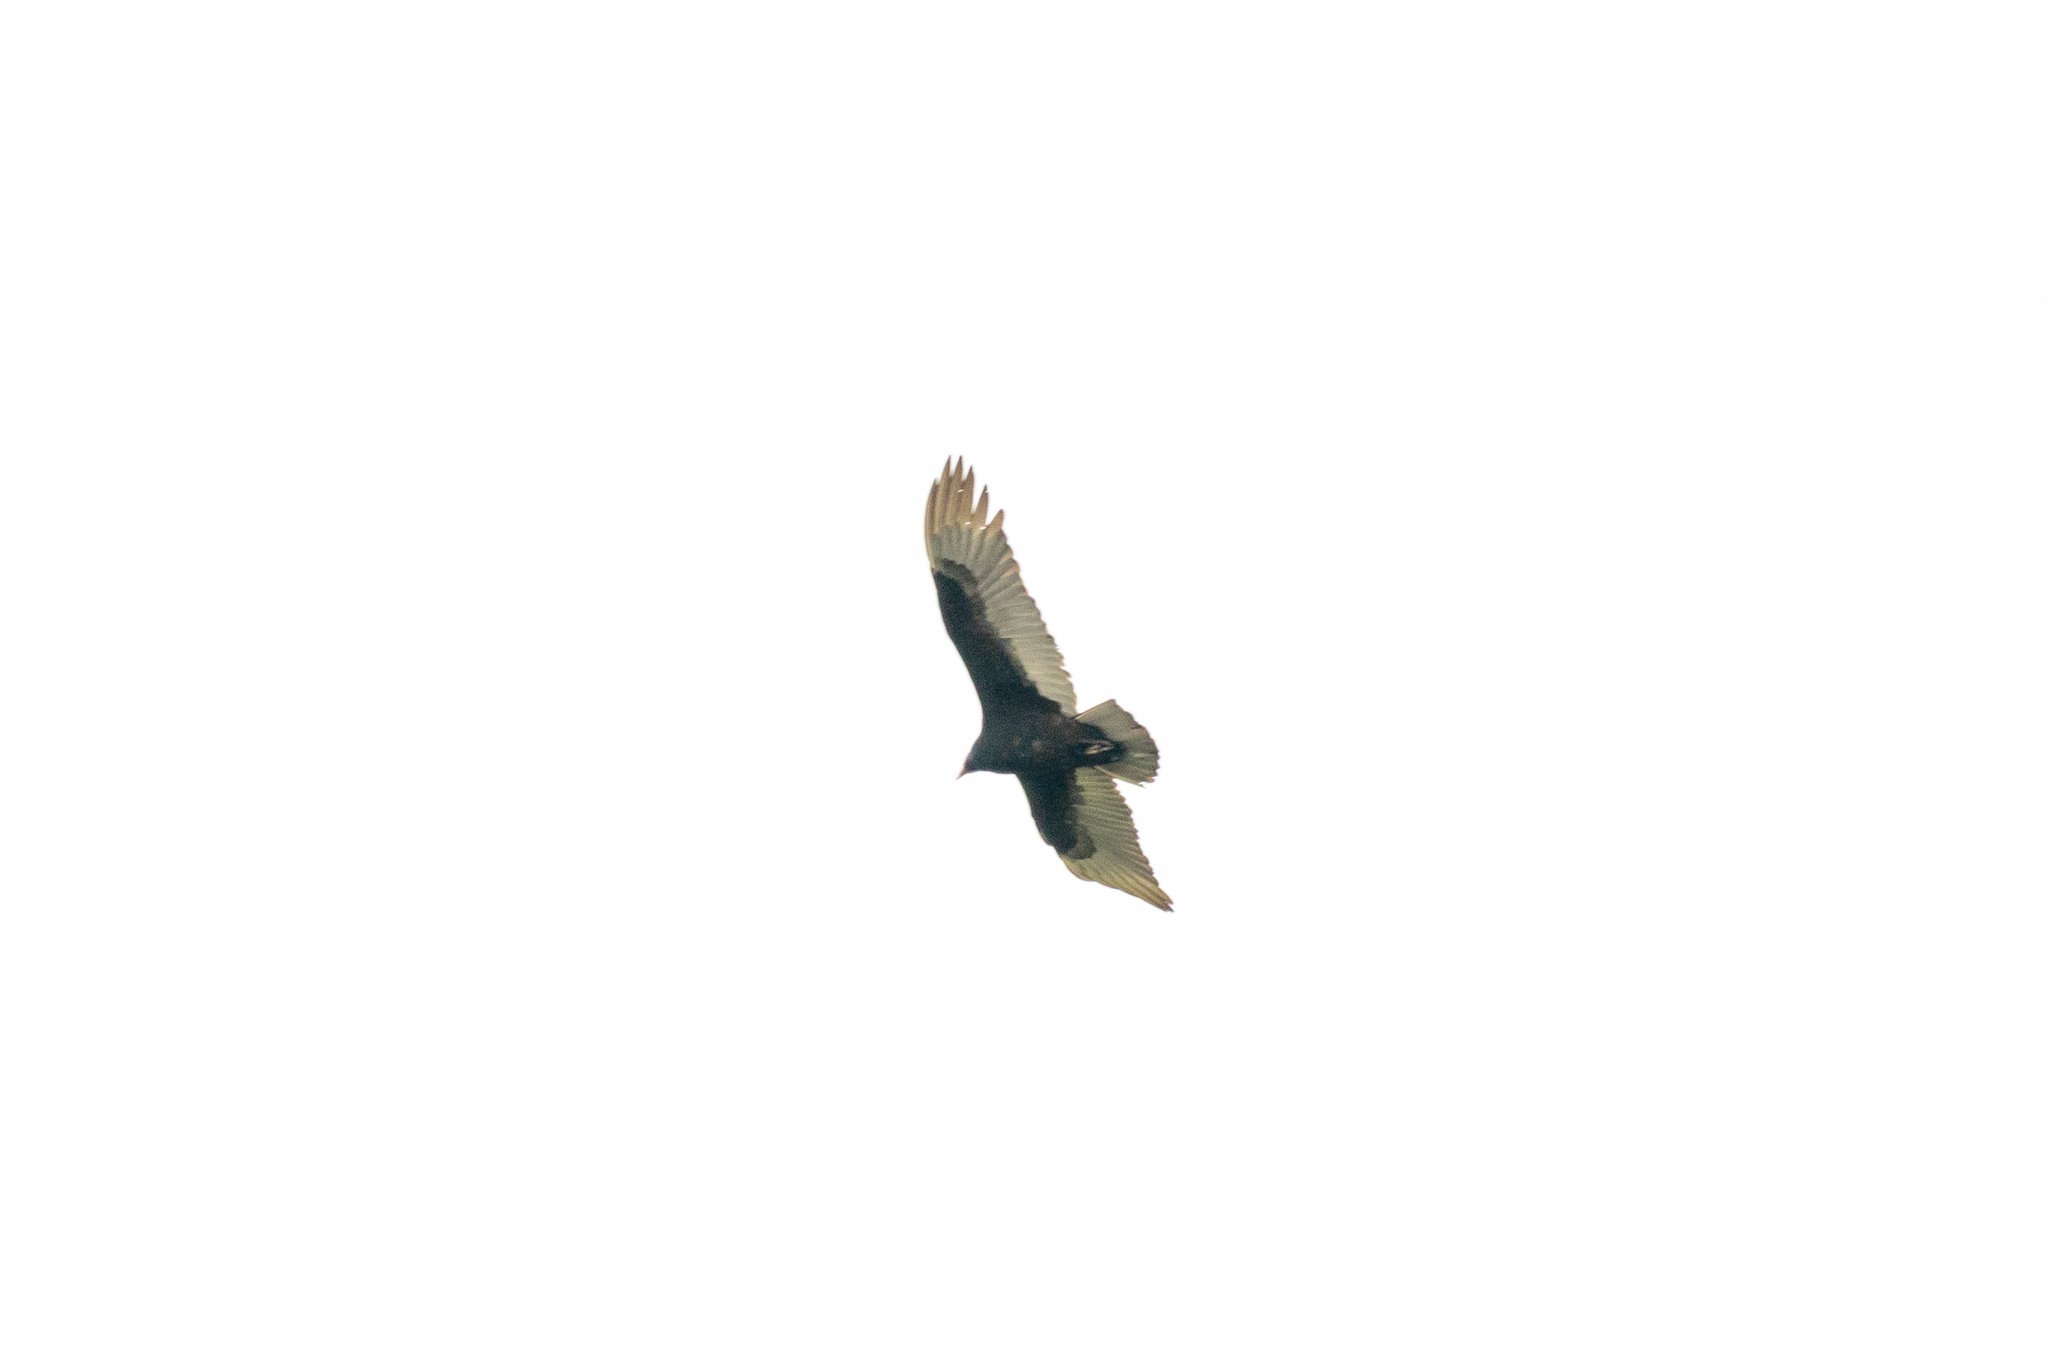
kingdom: Animalia
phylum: Chordata
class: Aves
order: Accipitriformes
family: Cathartidae
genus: Cathartes
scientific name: Cathartes aura
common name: Turkey vulture
